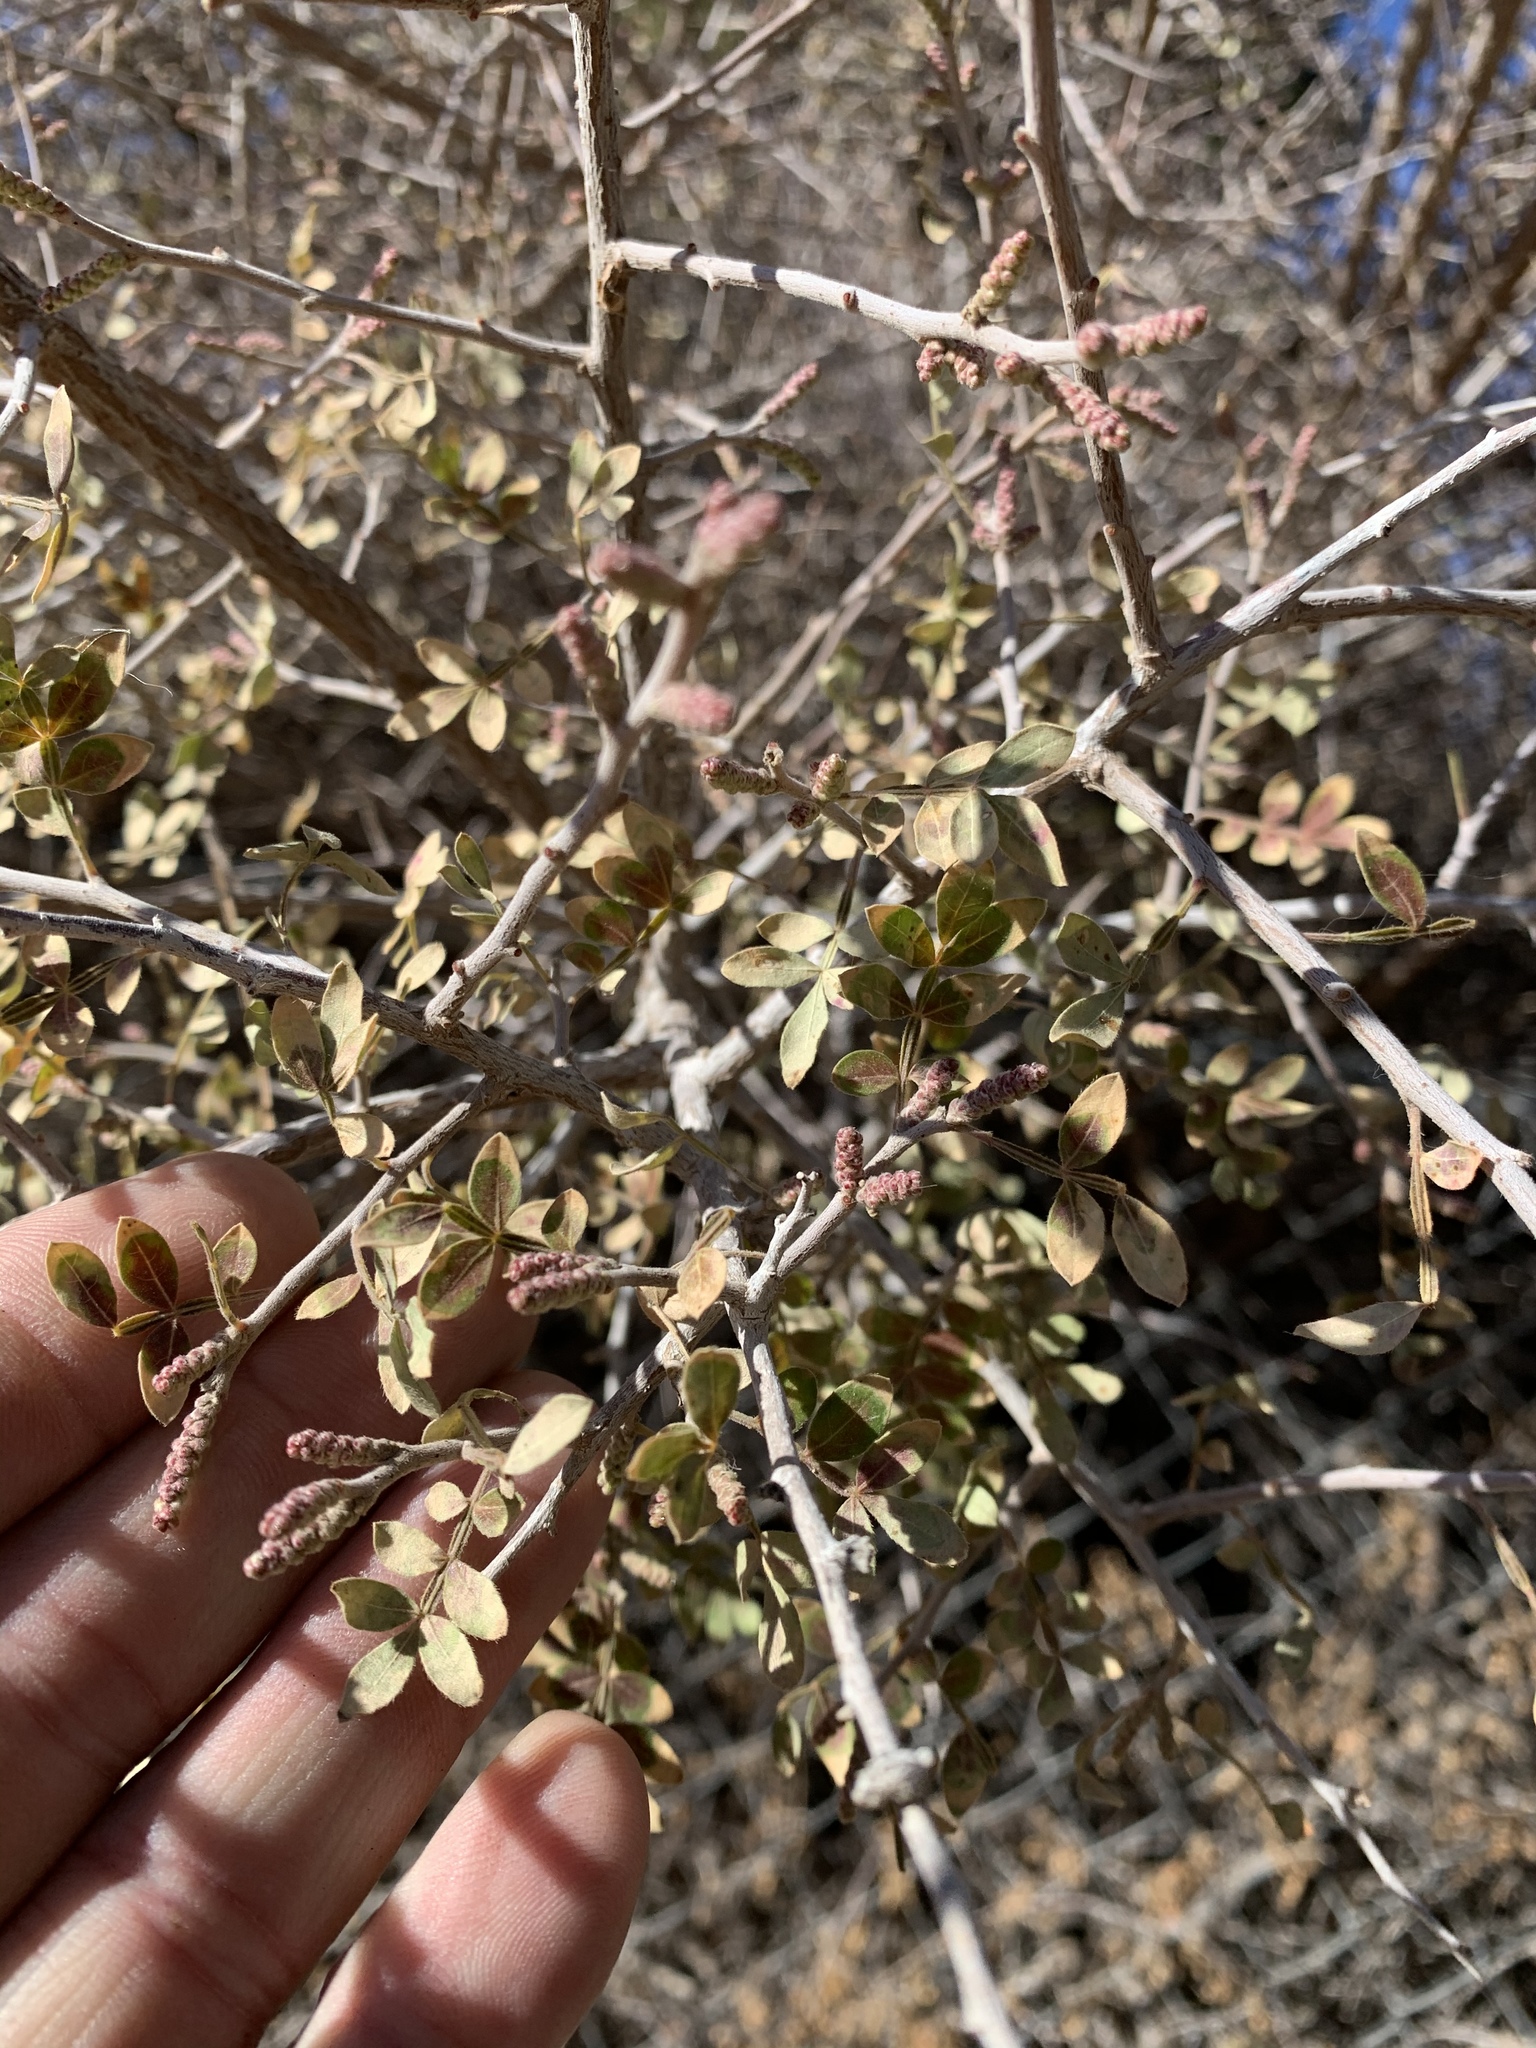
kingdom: Plantae
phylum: Tracheophyta
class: Magnoliopsida
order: Sapindales
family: Anacardiaceae
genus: Rhus
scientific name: Rhus microphylla
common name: Desert sumac
